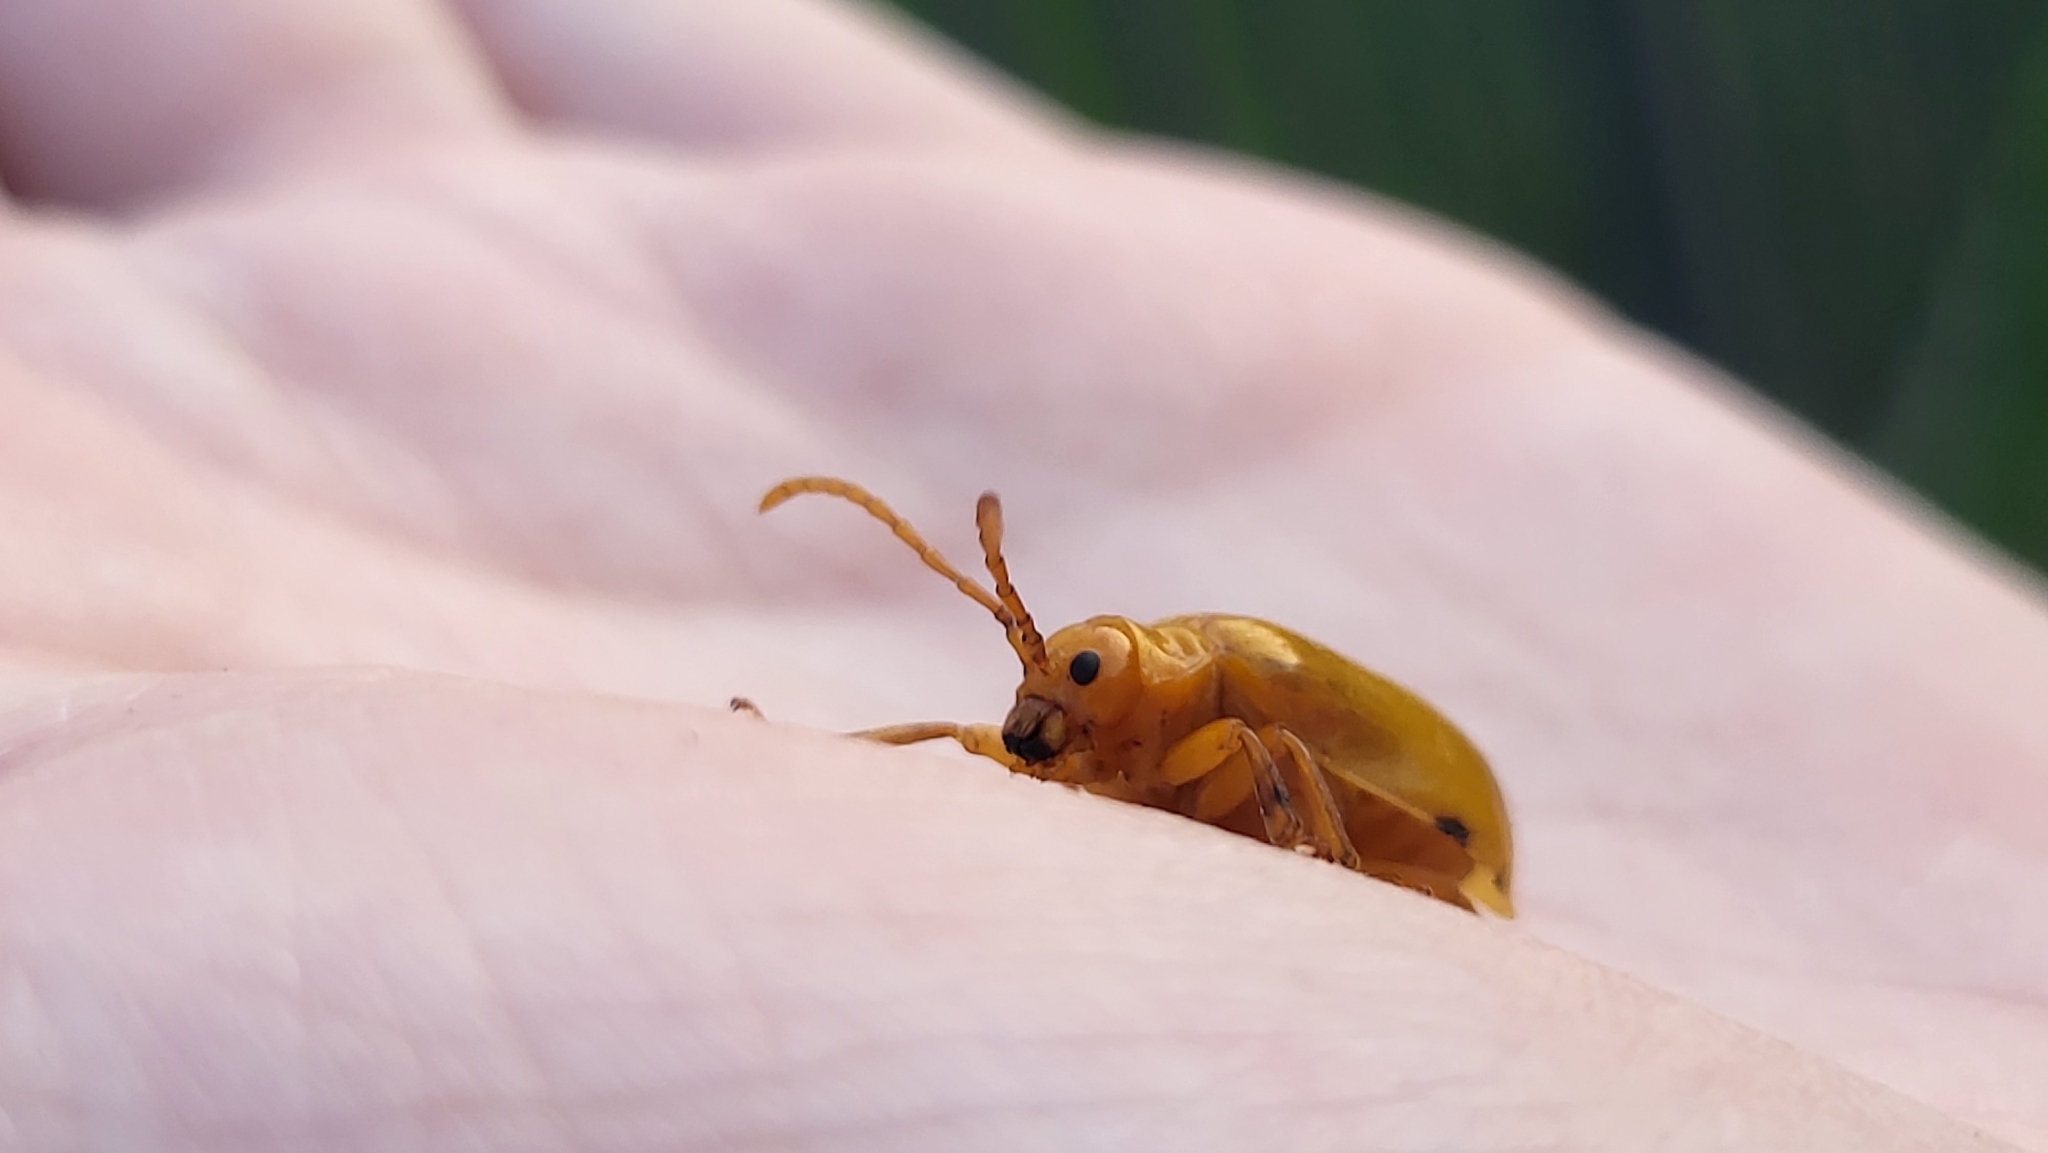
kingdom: Animalia
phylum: Arthropoda
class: Insecta
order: Coleoptera
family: Chrysomelidae
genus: Monocesta
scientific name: Monocesta coryli
